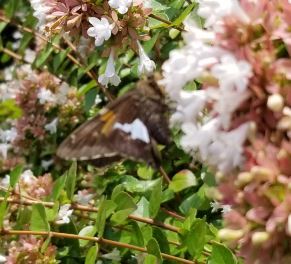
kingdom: Animalia
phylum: Arthropoda
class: Insecta
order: Lepidoptera
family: Hesperiidae
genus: Epargyreus
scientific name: Epargyreus clarus
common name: Silver-spotted skipper
